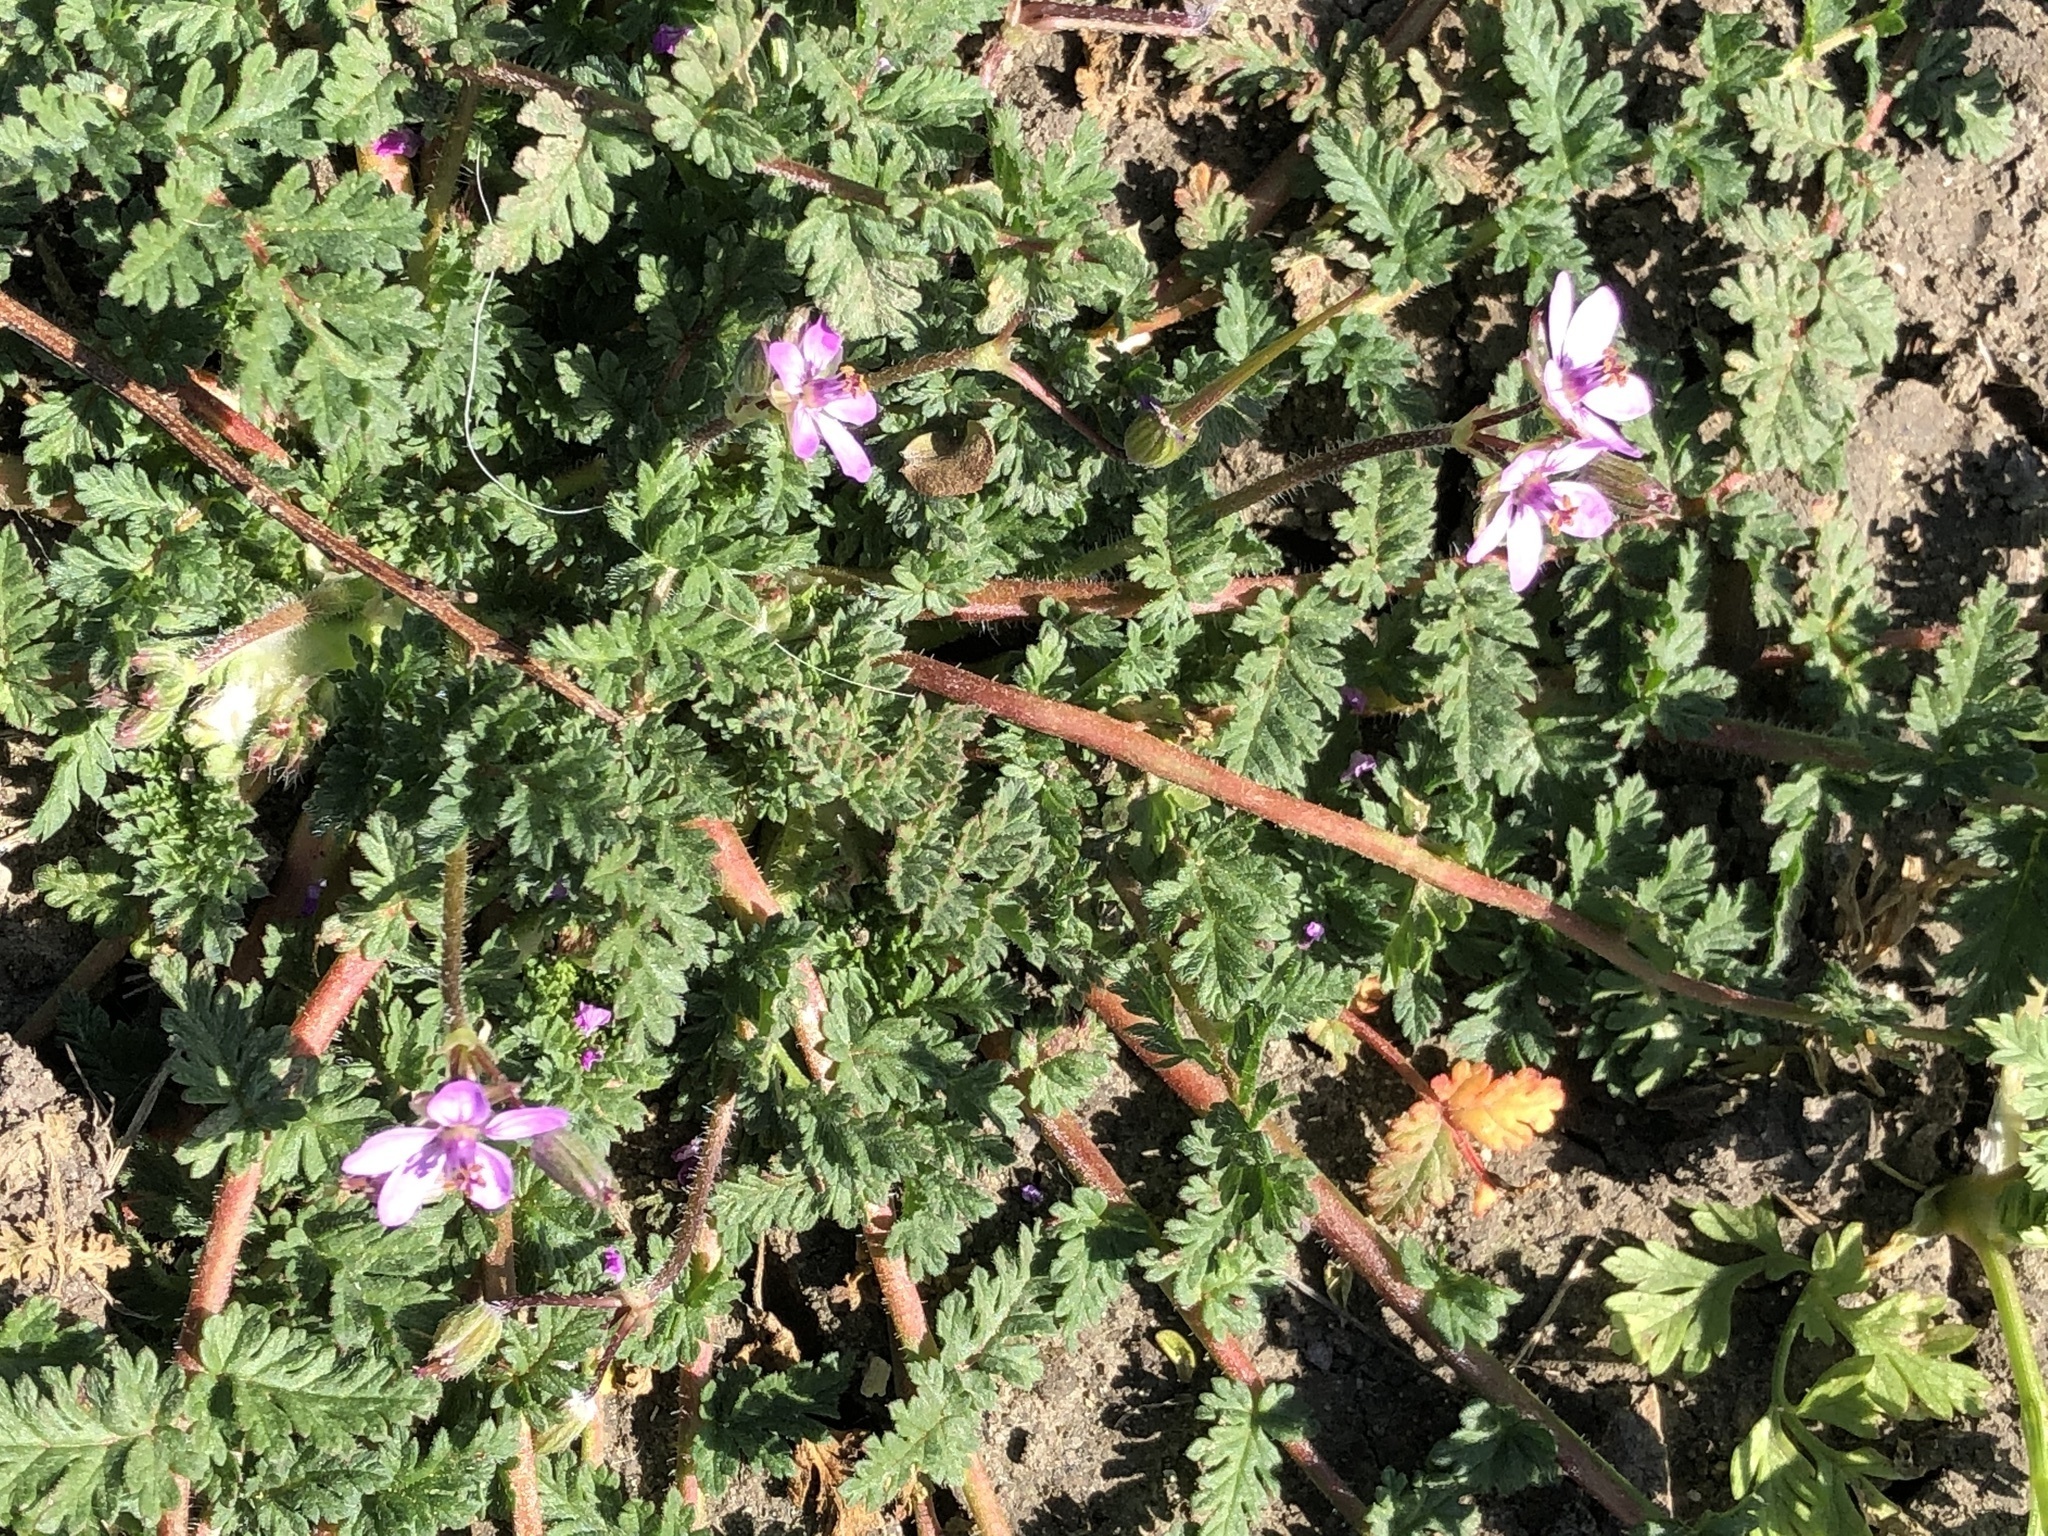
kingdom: Plantae
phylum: Tracheophyta
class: Magnoliopsida
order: Geraniales
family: Geraniaceae
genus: Erodium
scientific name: Erodium cicutarium
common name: Common stork's-bill
